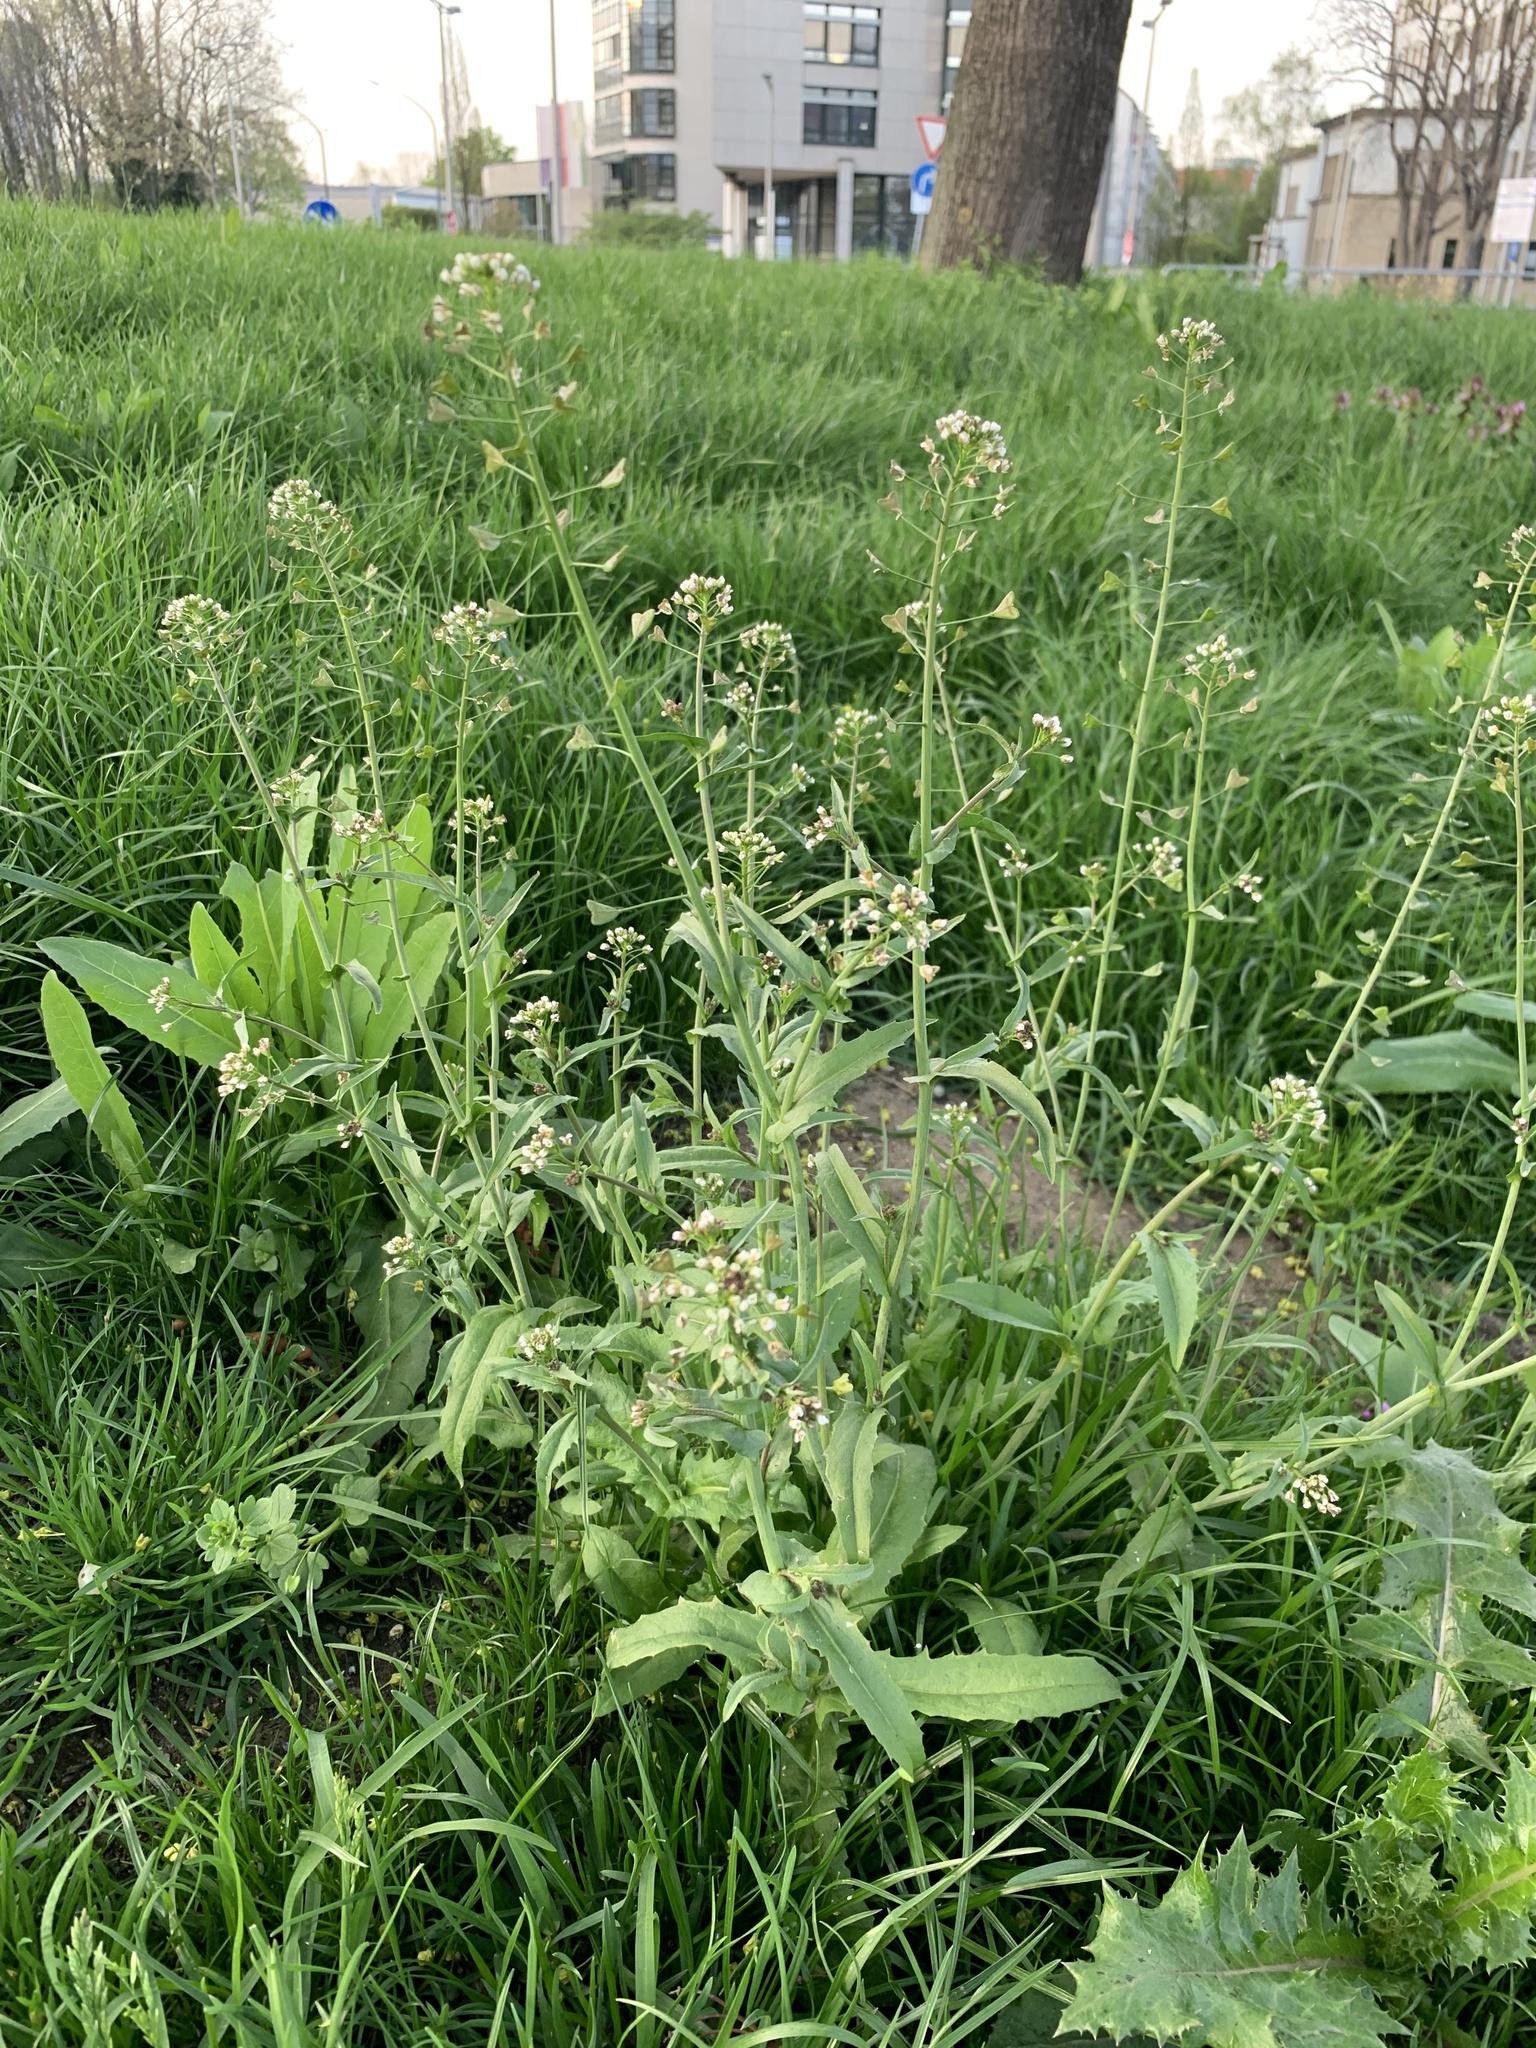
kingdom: Plantae
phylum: Tracheophyta
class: Magnoliopsida
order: Brassicales
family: Brassicaceae
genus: Capsella
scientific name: Capsella bursa-pastoris
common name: Shepherd's purse
